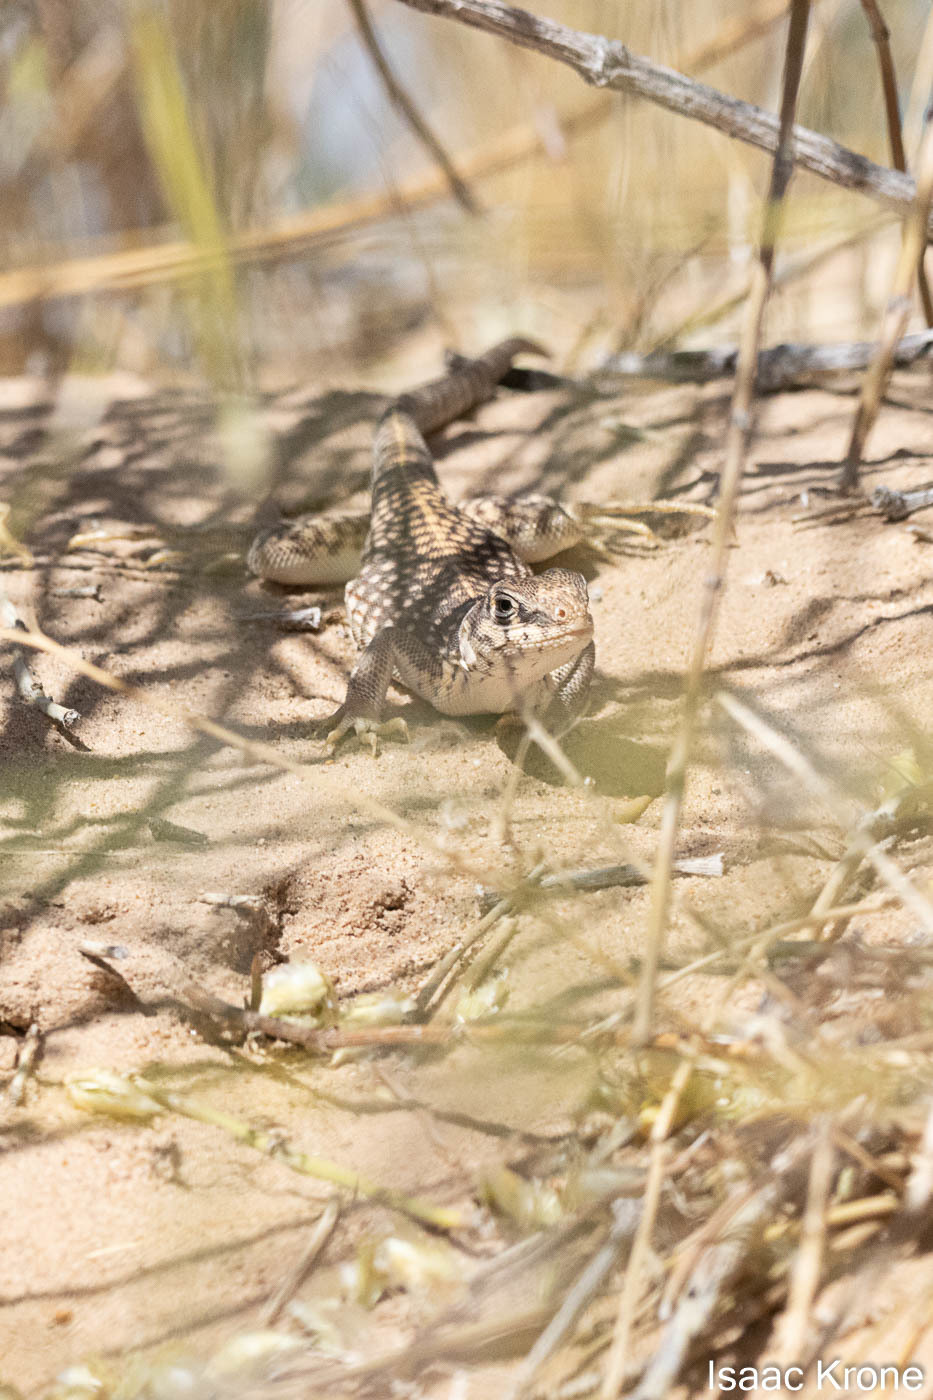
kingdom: Animalia
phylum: Chordata
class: Squamata
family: Iguanidae
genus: Dipsosaurus
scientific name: Dipsosaurus dorsalis
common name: Desert iguana
